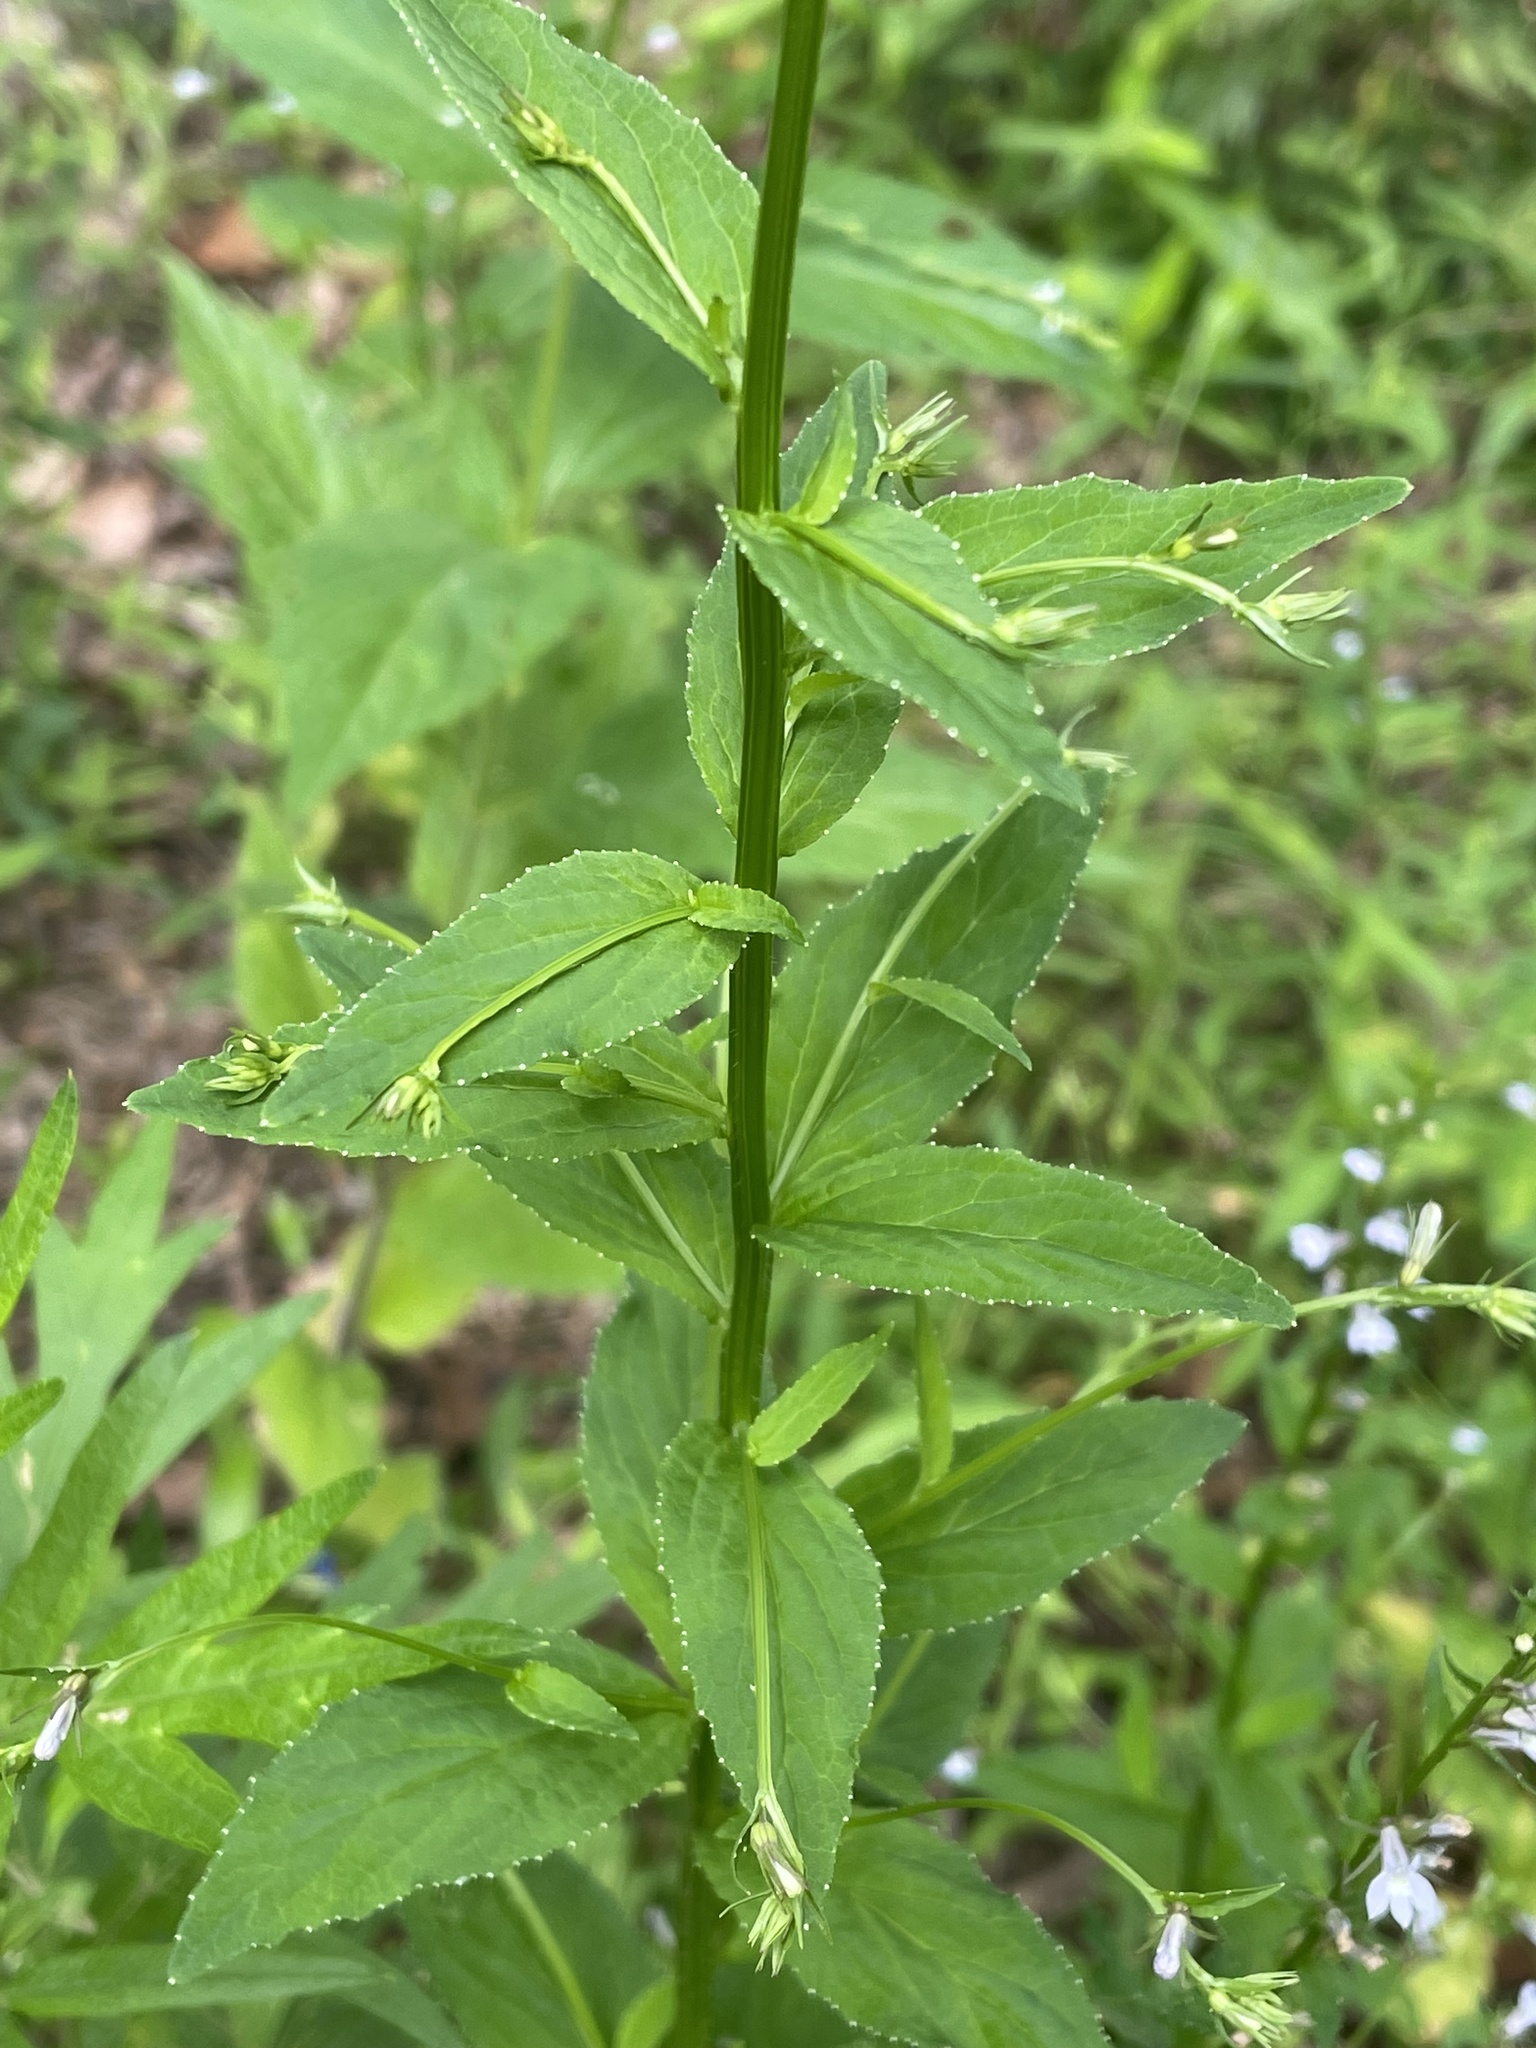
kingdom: Plantae
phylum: Tracheophyta
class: Magnoliopsida
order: Asterales
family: Campanulaceae
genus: Lobelia
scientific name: Lobelia inflata
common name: Indian tobacco
